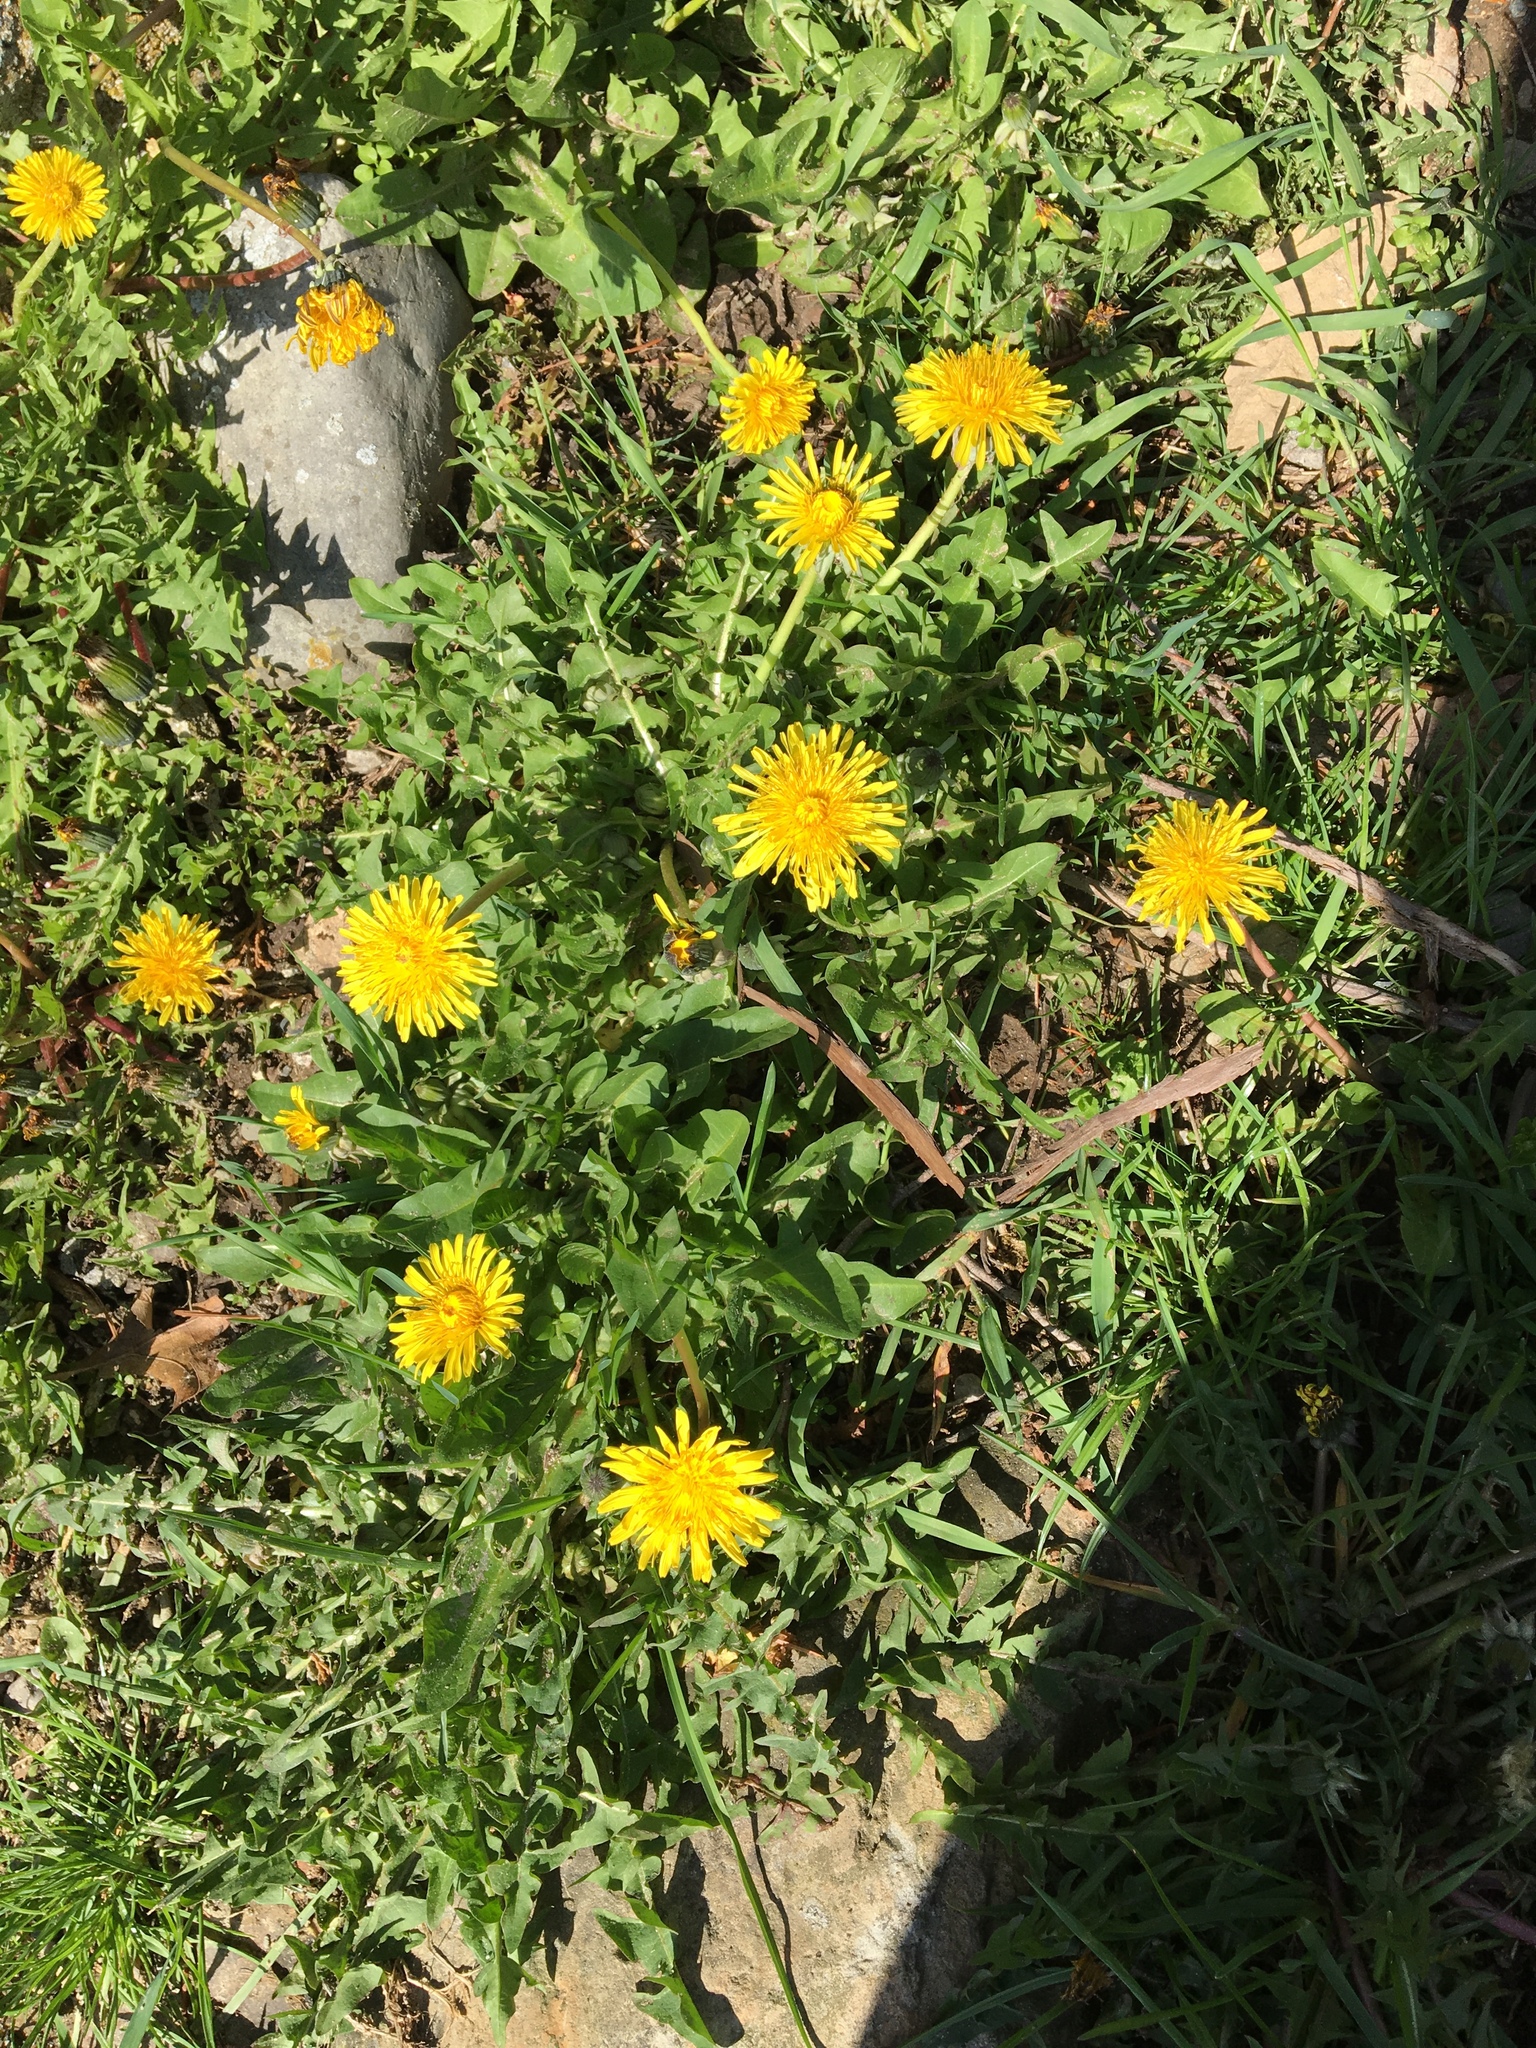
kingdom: Plantae
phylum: Tracheophyta
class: Magnoliopsida
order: Asterales
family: Asteraceae
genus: Taraxacum
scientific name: Taraxacum officinale
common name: Common dandelion
